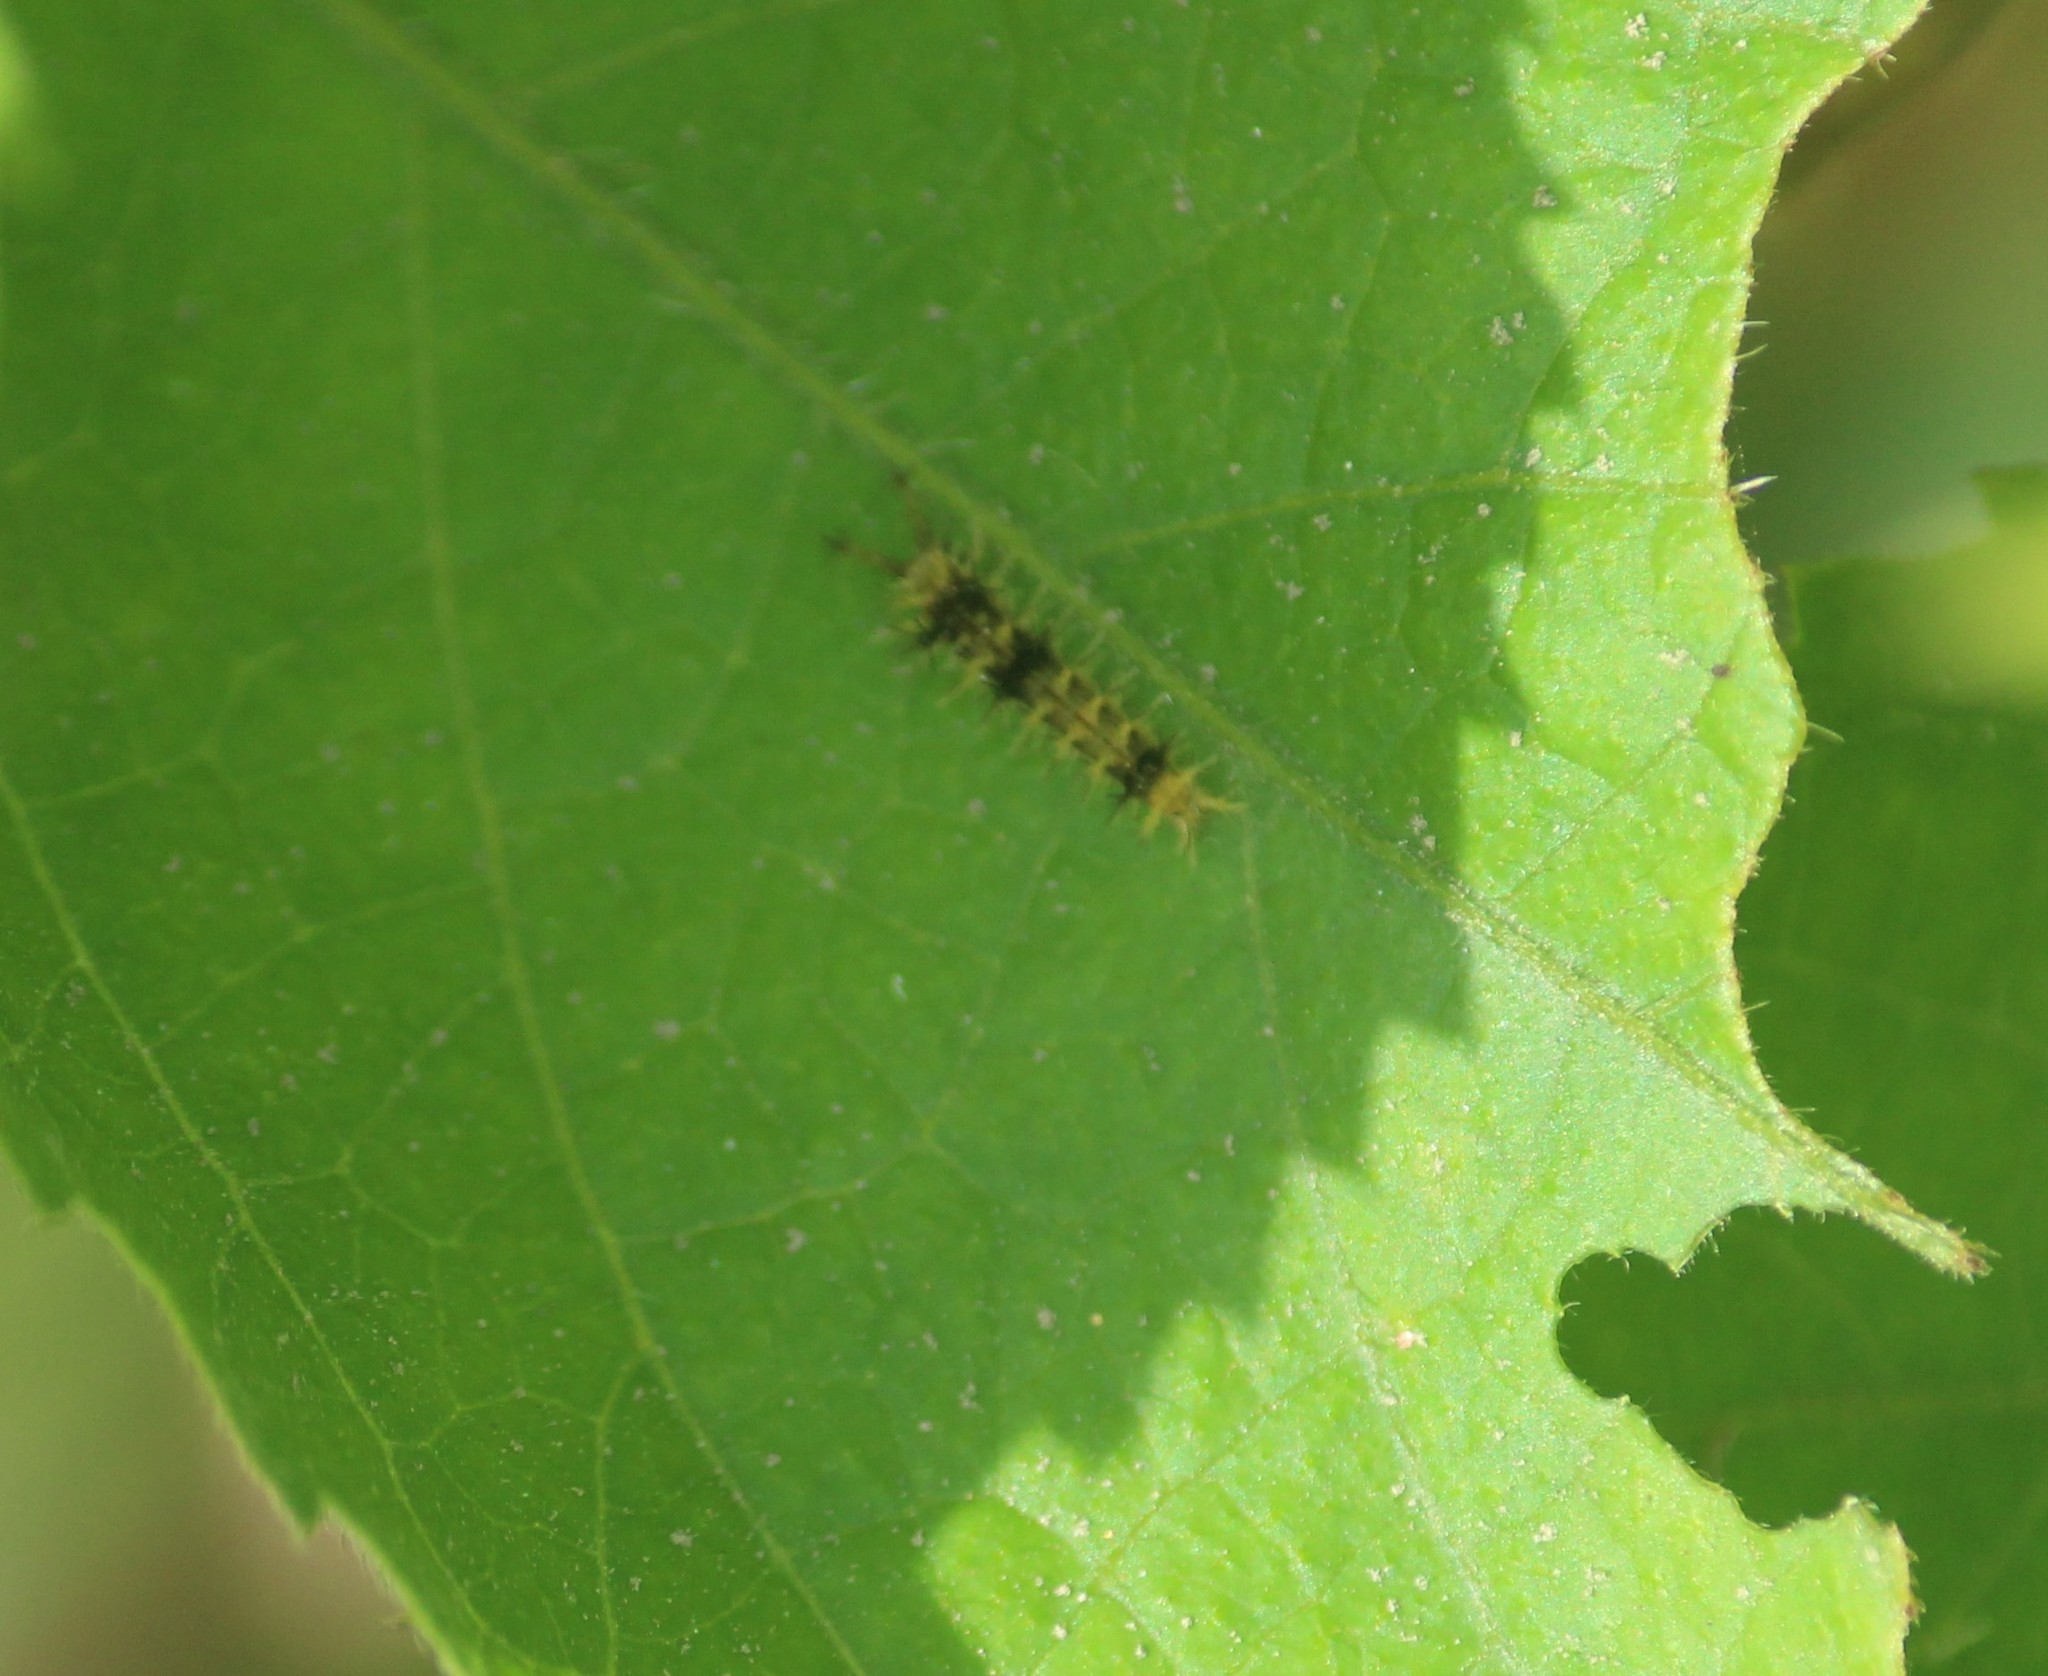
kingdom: Animalia
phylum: Arthropoda
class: Insecta
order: Lepidoptera
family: Nymphalidae
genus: Ariadne
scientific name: Ariadne merione
